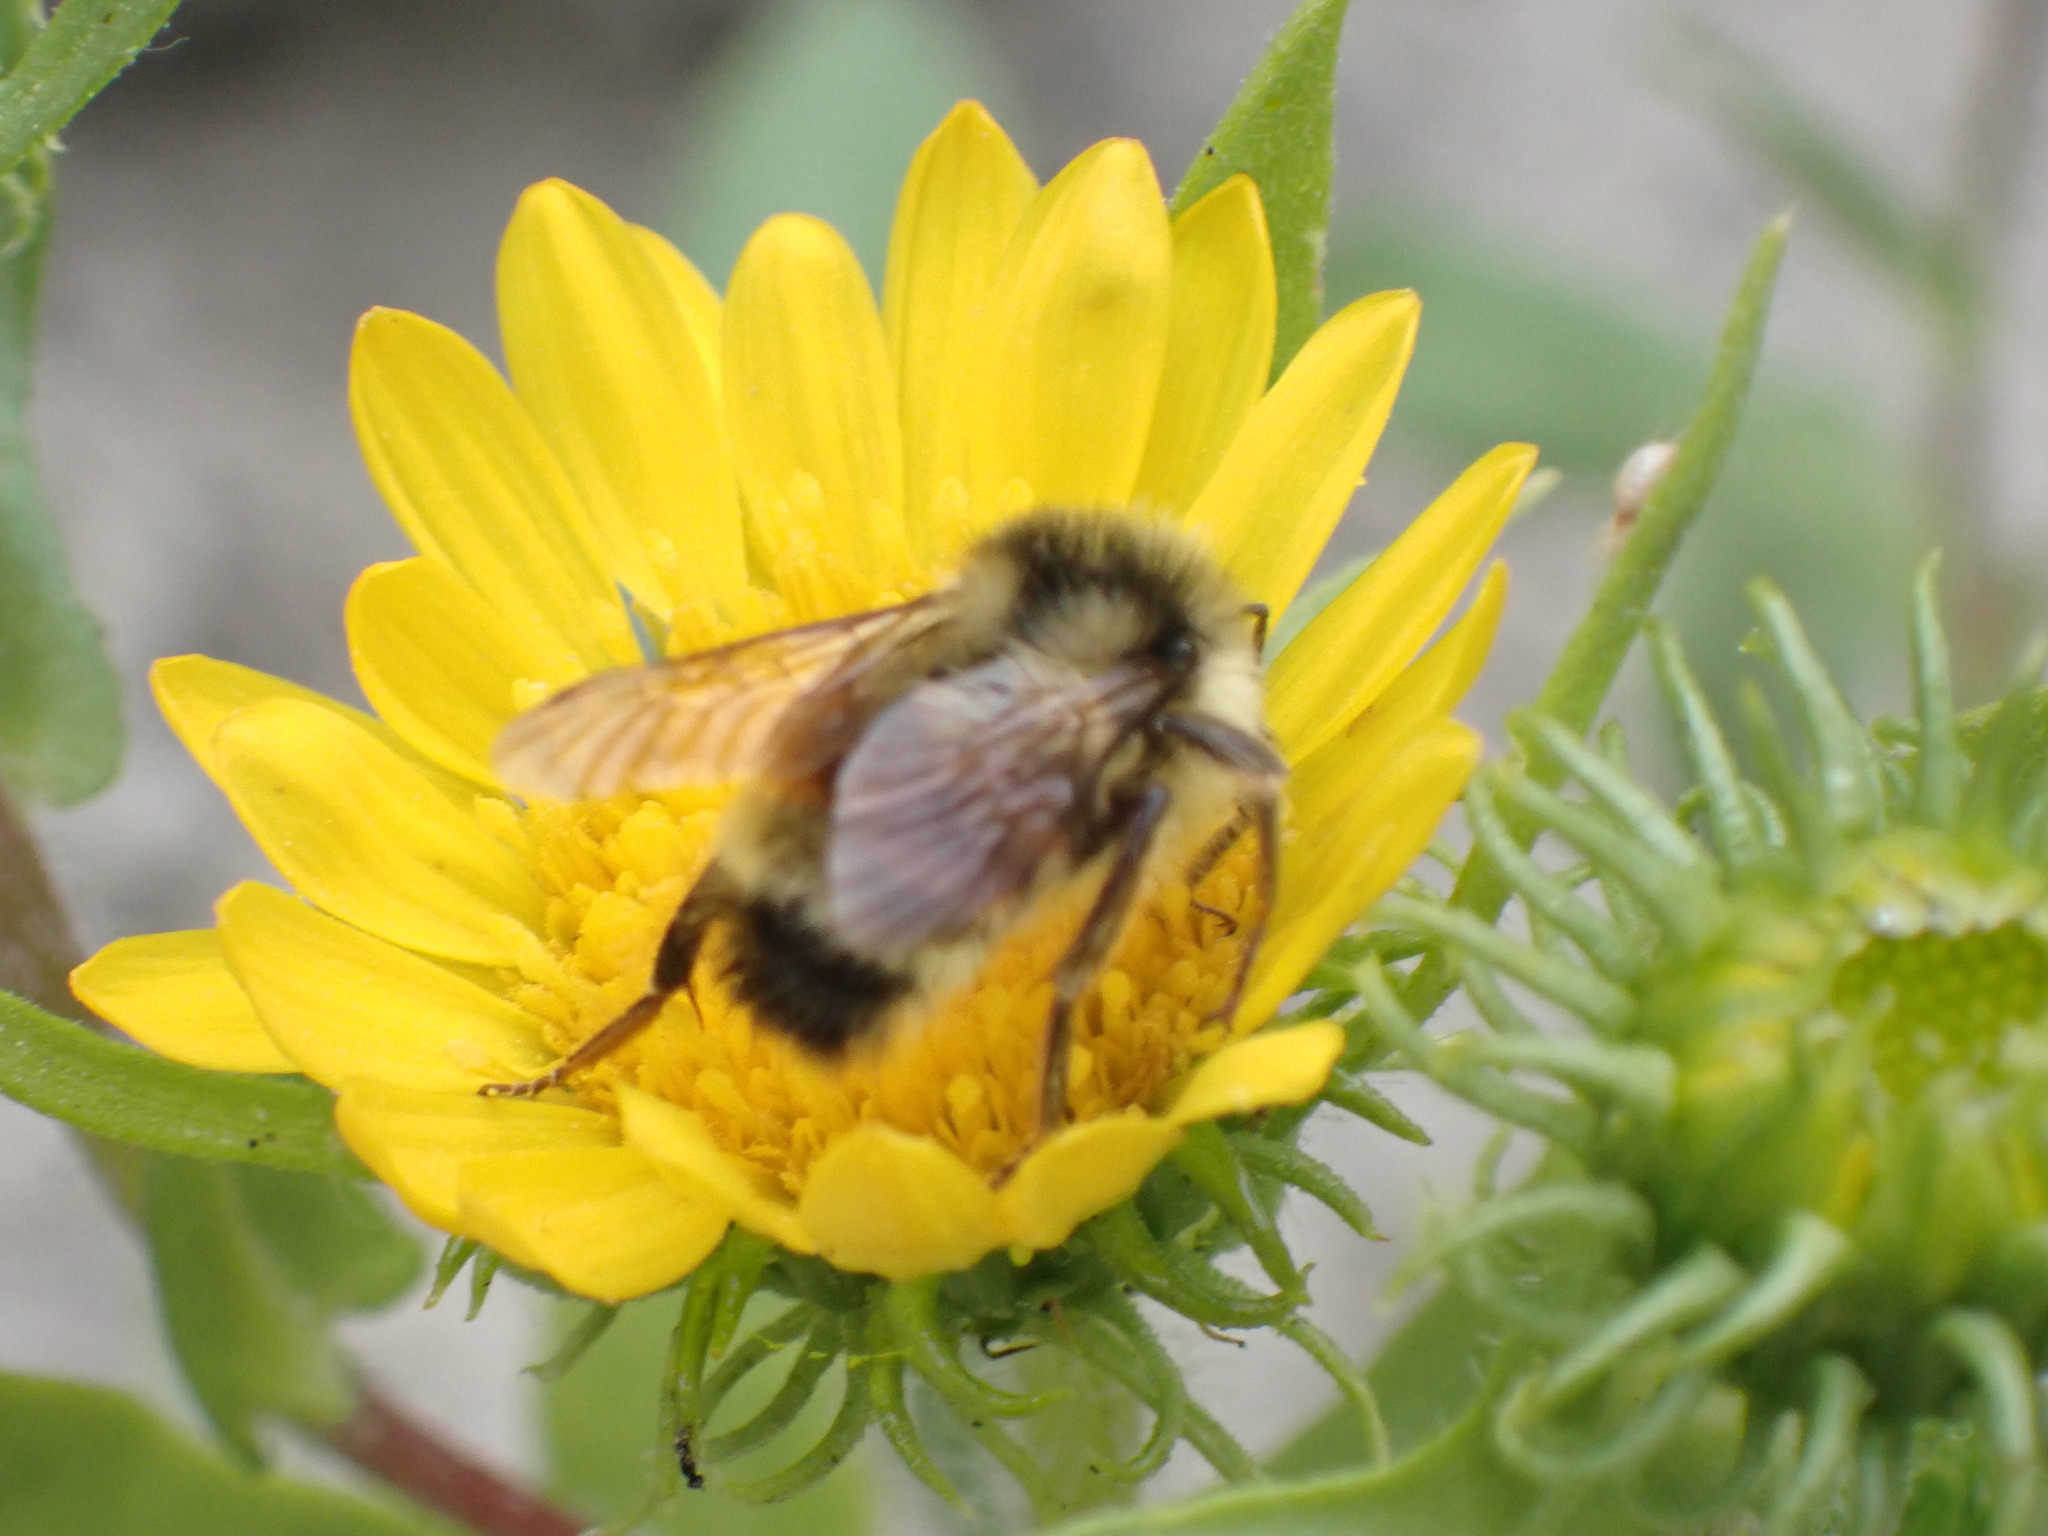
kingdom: Animalia
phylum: Arthropoda
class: Insecta
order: Hymenoptera
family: Apidae
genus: Bombus
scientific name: Bombus vancouverensis
